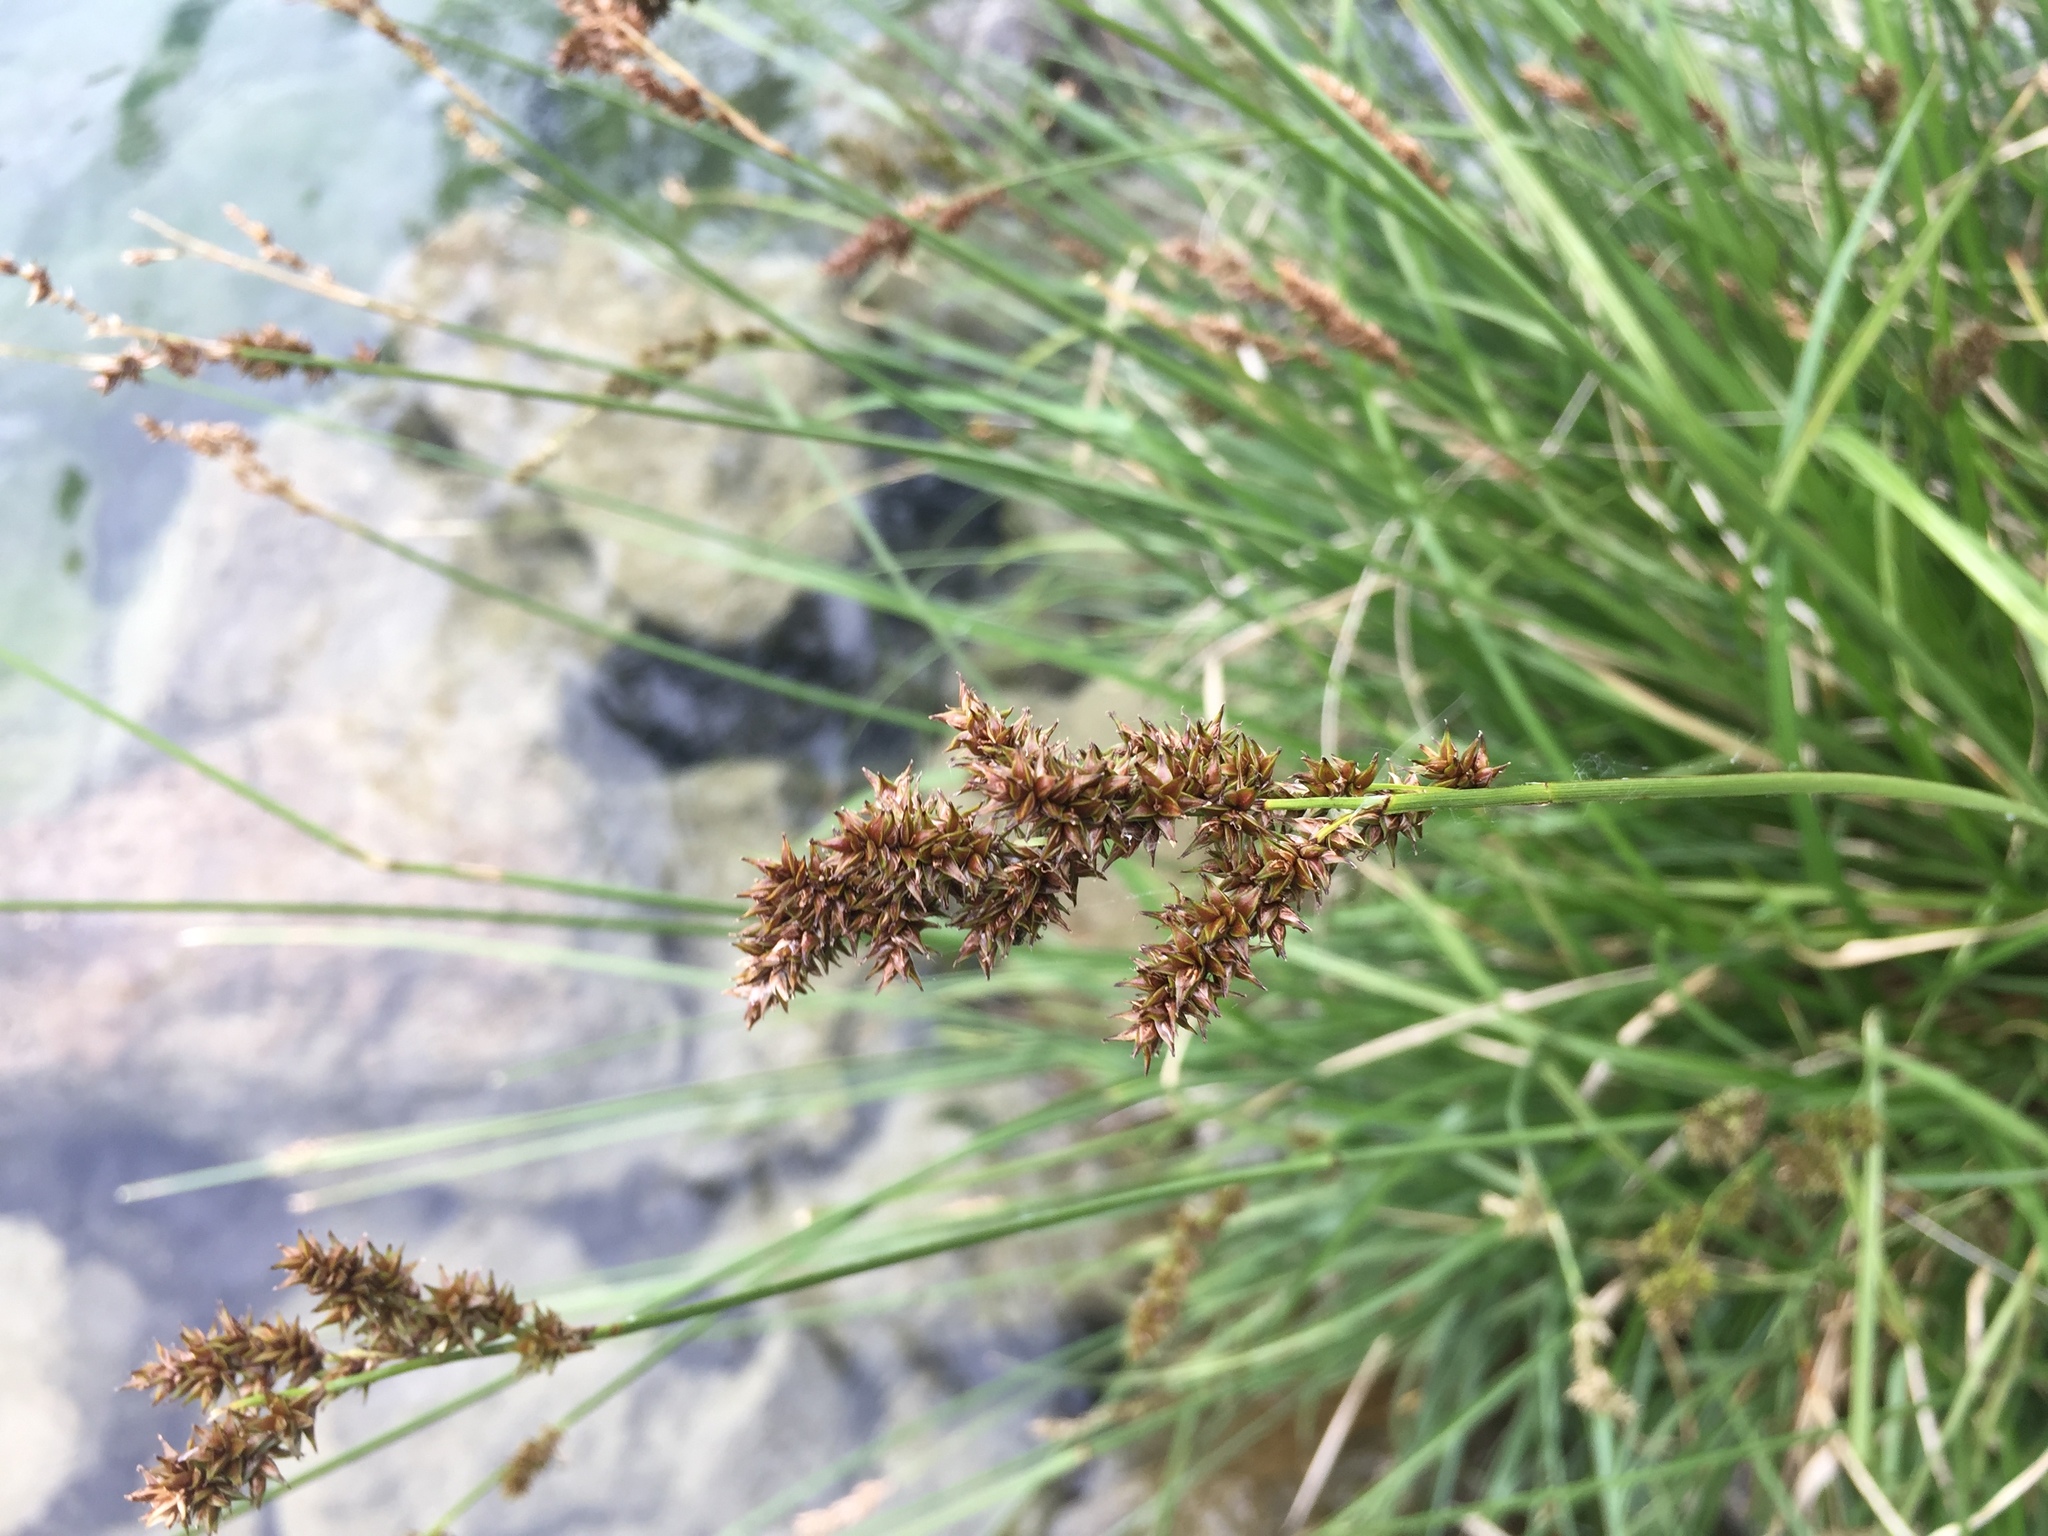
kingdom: Plantae
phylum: Tracheophyta
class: Liliopsida
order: Poales
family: Cyperaceae
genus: Carex
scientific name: Carex paniculata
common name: Greater tussock-sedge
